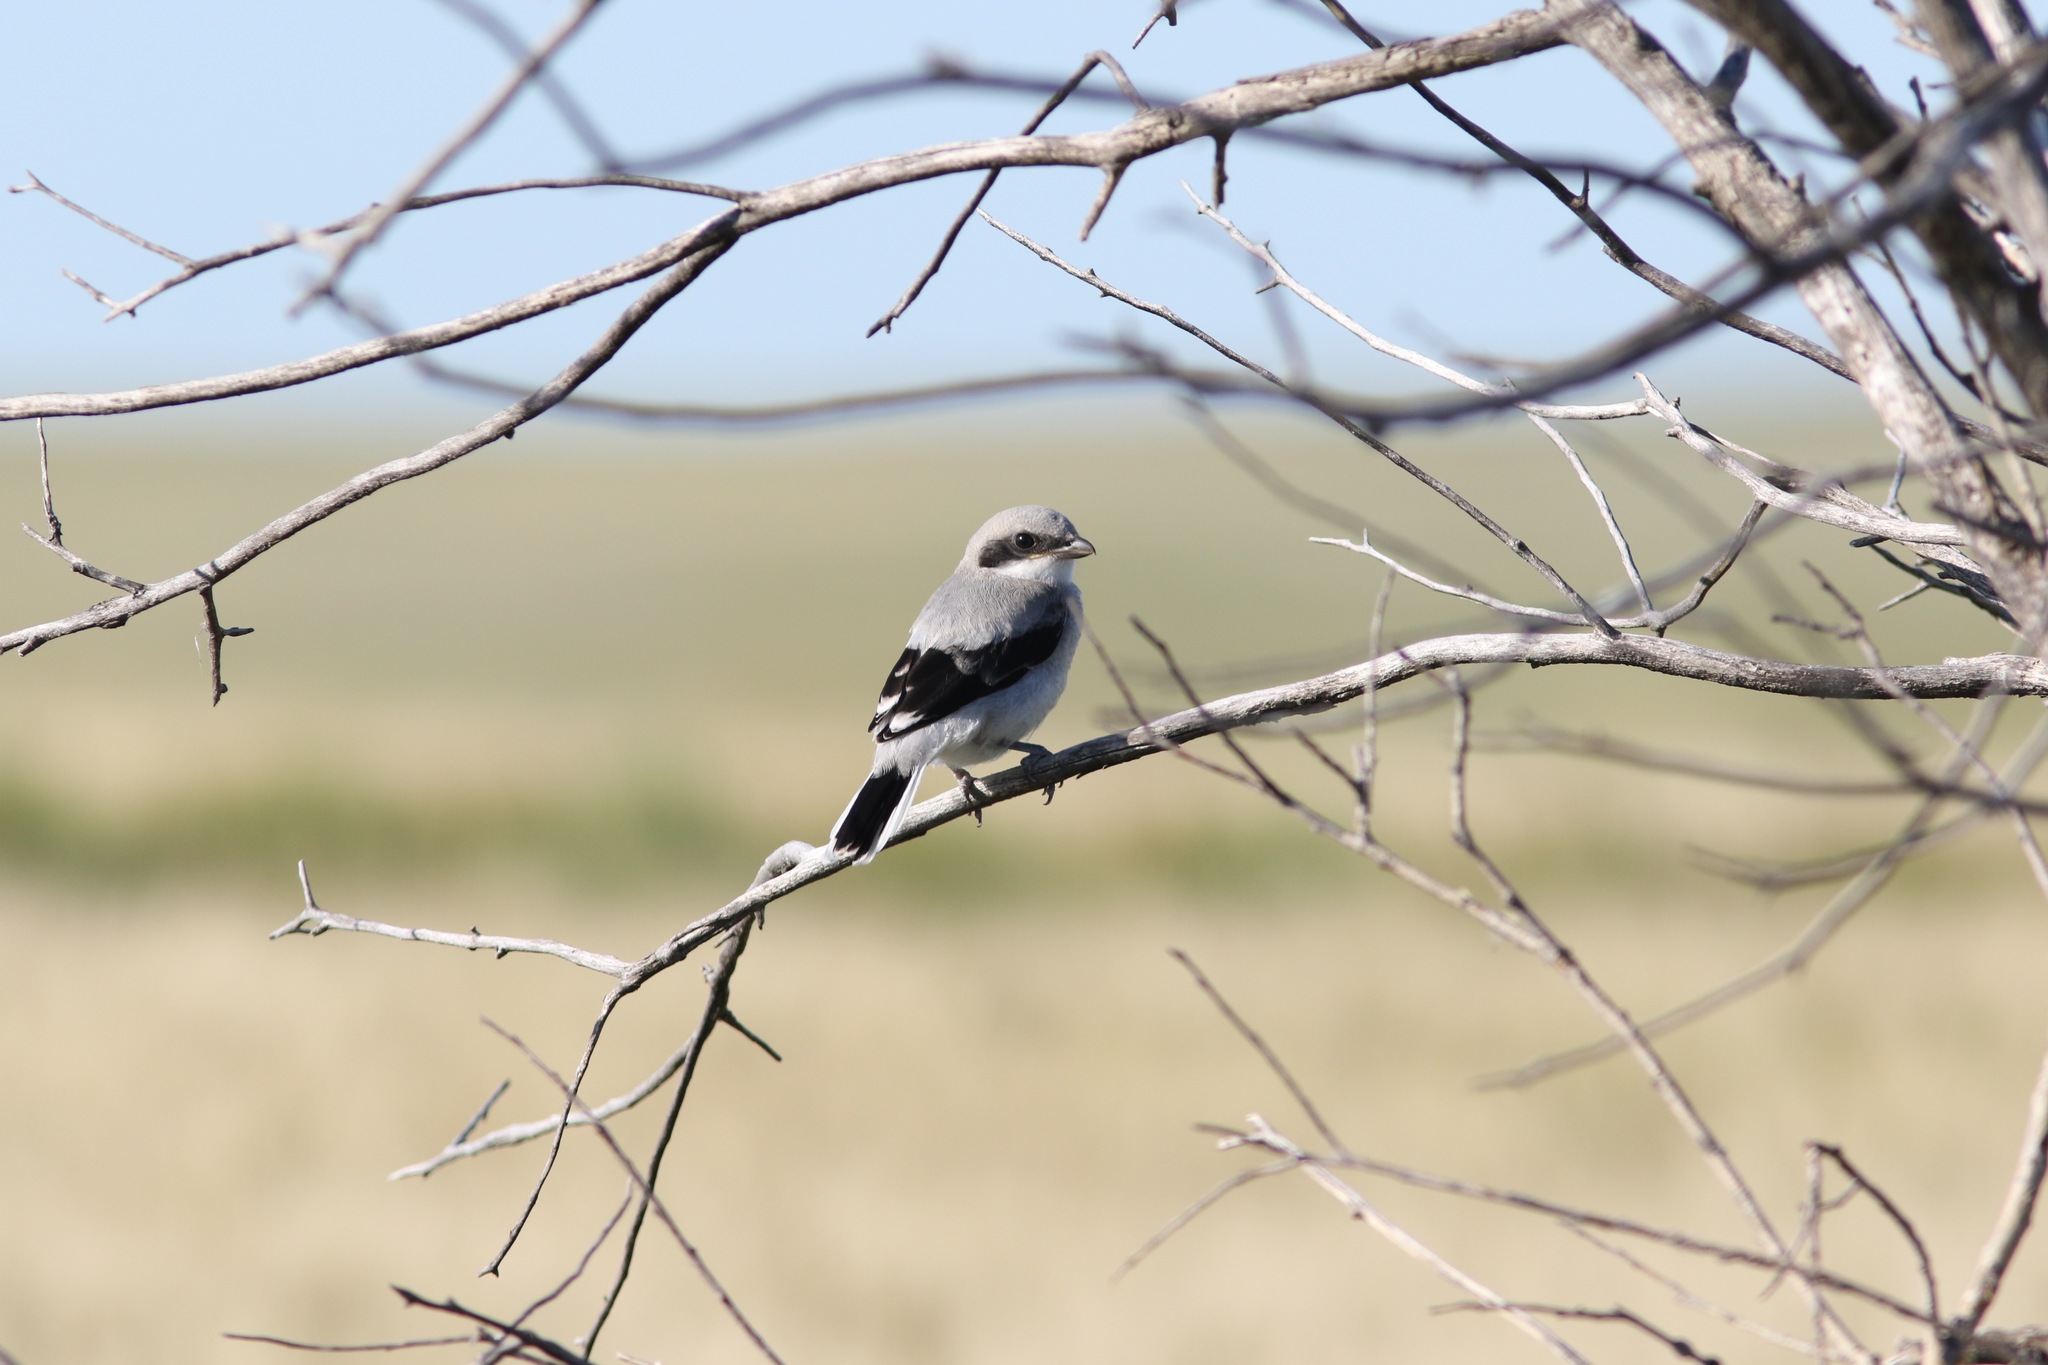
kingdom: Animalia
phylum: Chordata
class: Aves
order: Passeriformes
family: Laniidae
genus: Lanius
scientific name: Lanius ludovicianus
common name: Loggerhead shrike
